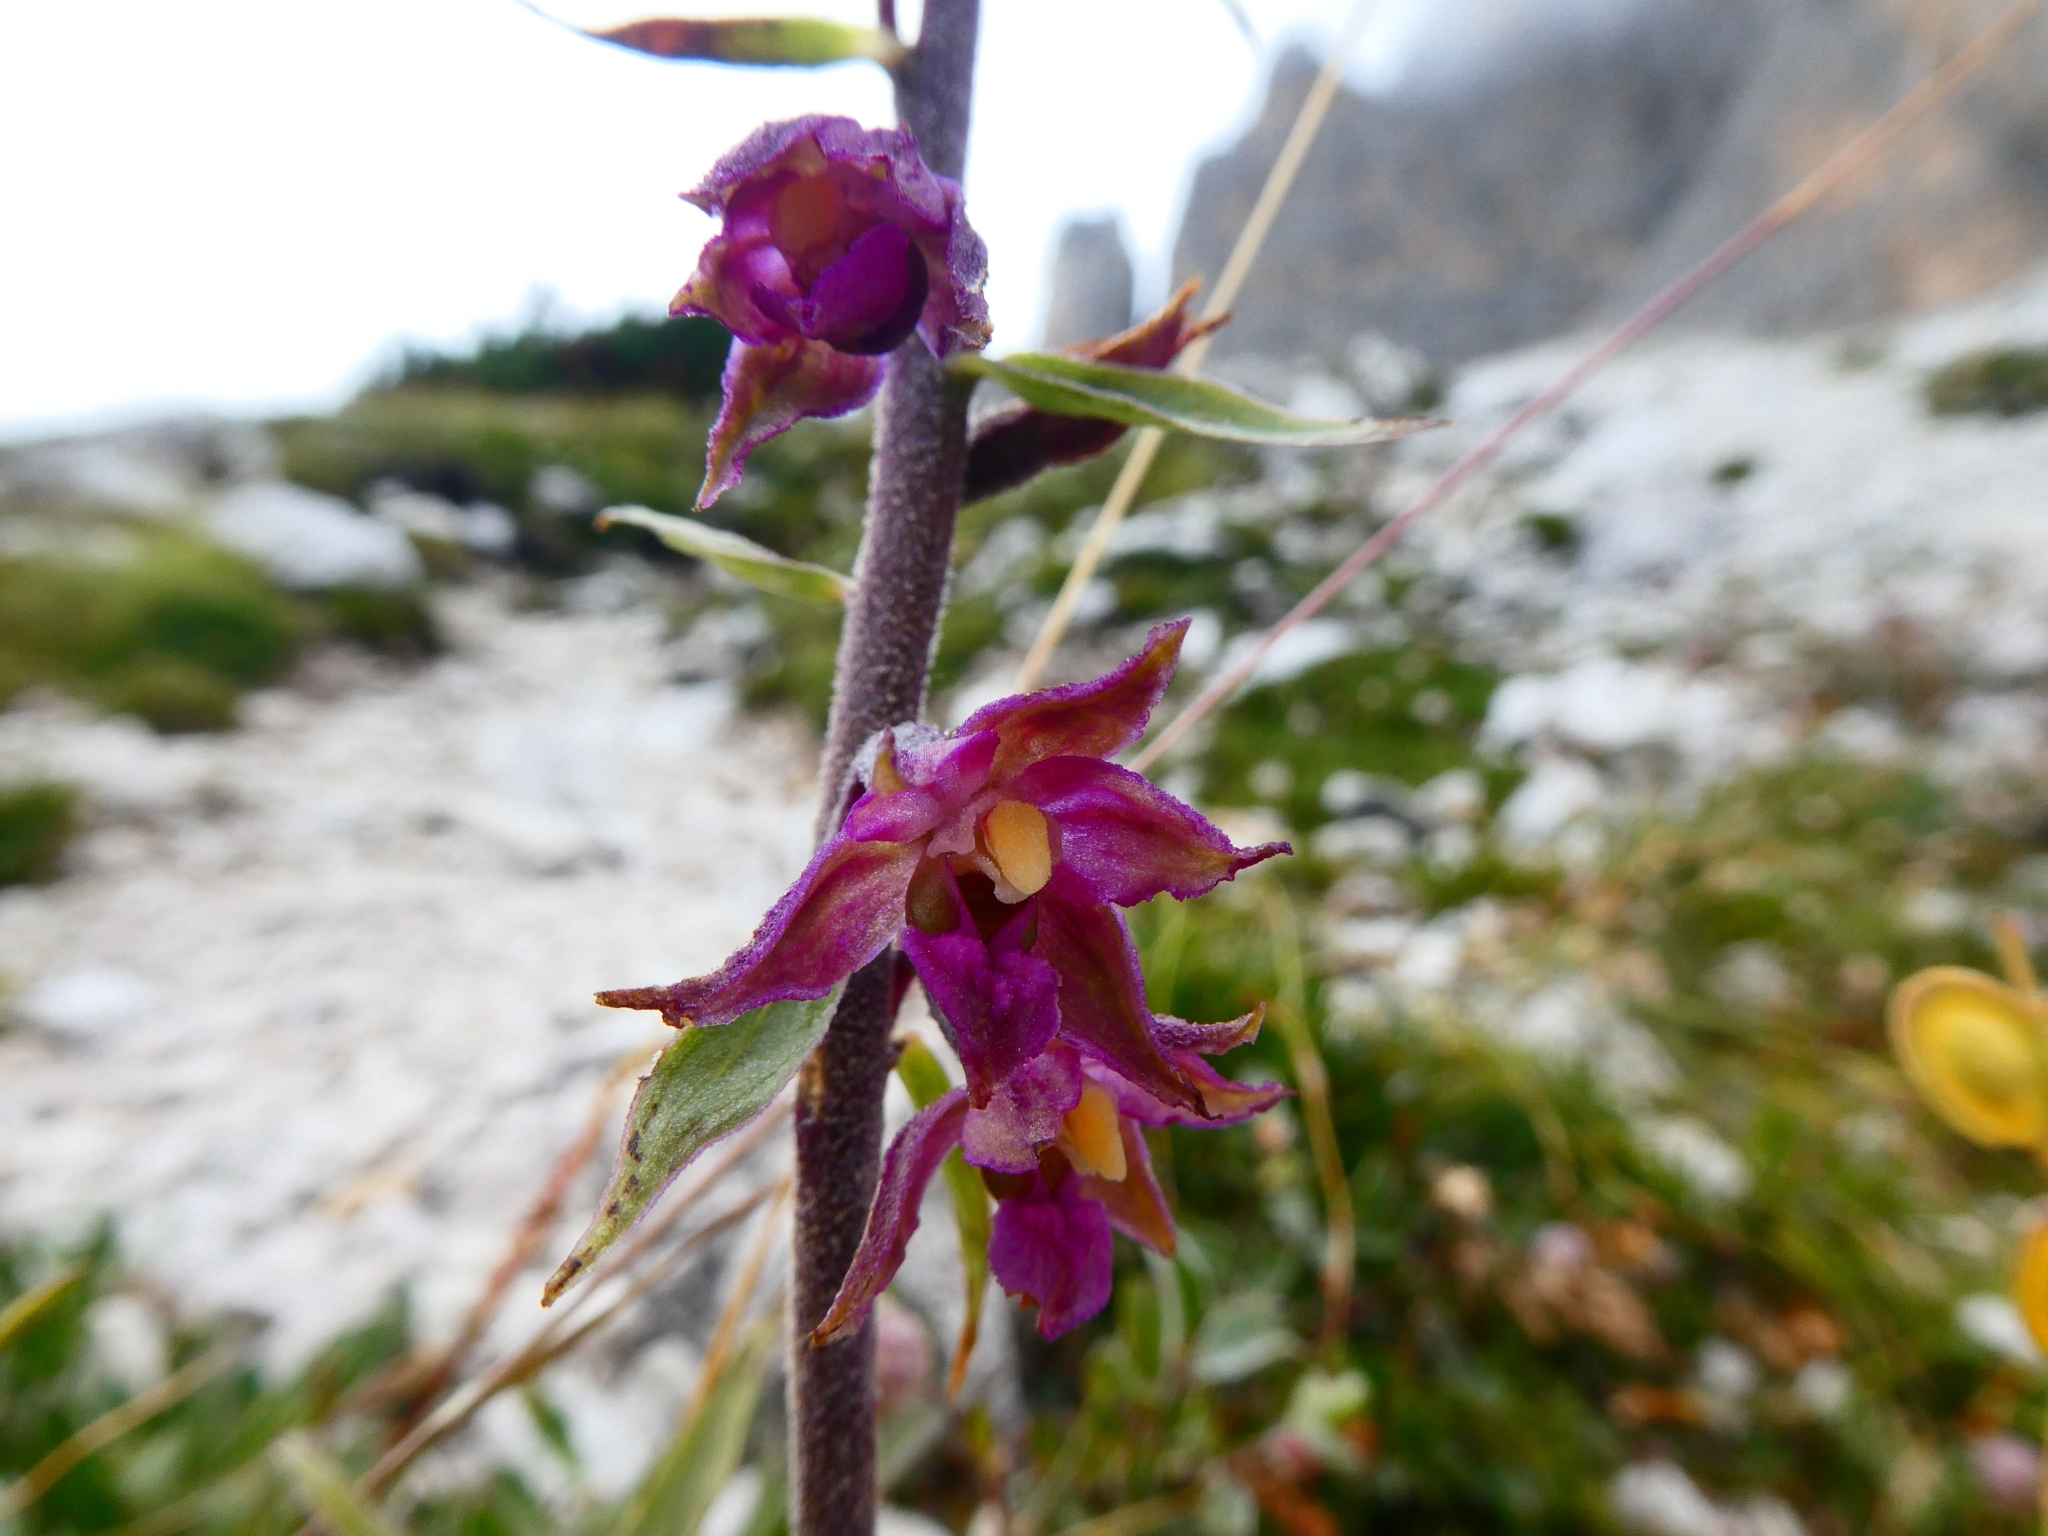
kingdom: Plantae
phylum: Tracheophyta
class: Liliopsida
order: Asparagales
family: Orchidaceae
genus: Epipactis
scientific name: Epipactis atrorubens
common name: Dark-red helleborine
